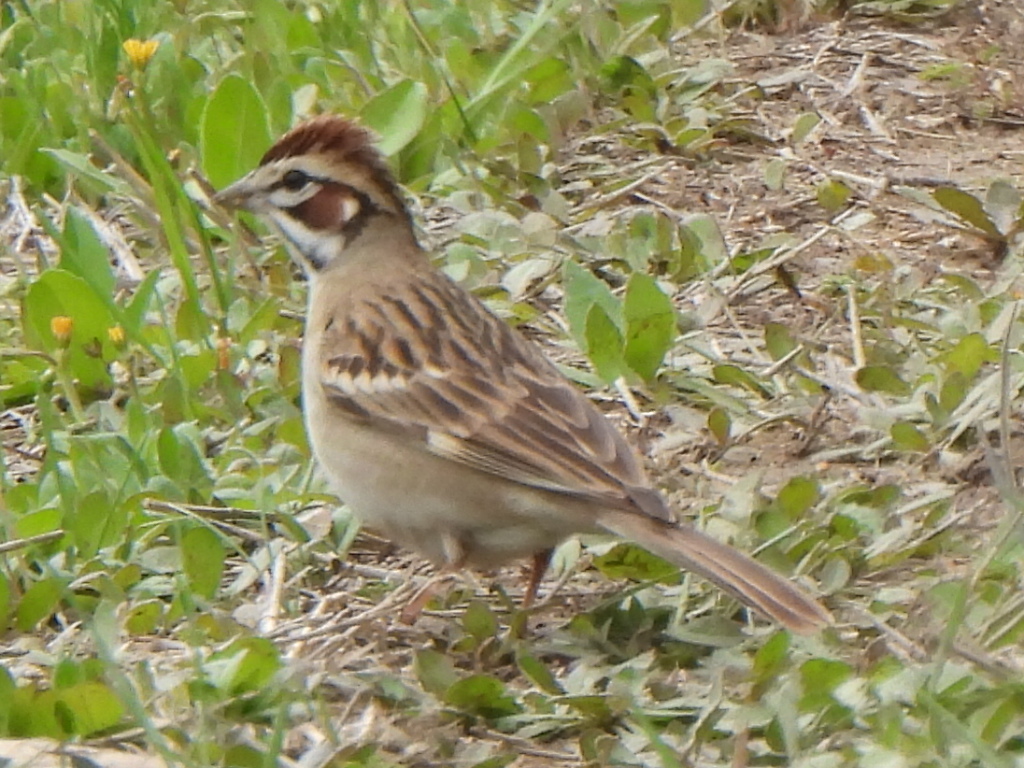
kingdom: Animalia
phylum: Chordata
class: Aves
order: Passeriformes
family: Passerellidae
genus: Chondestes
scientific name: Chondestes grammacus
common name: Lark sparrow
